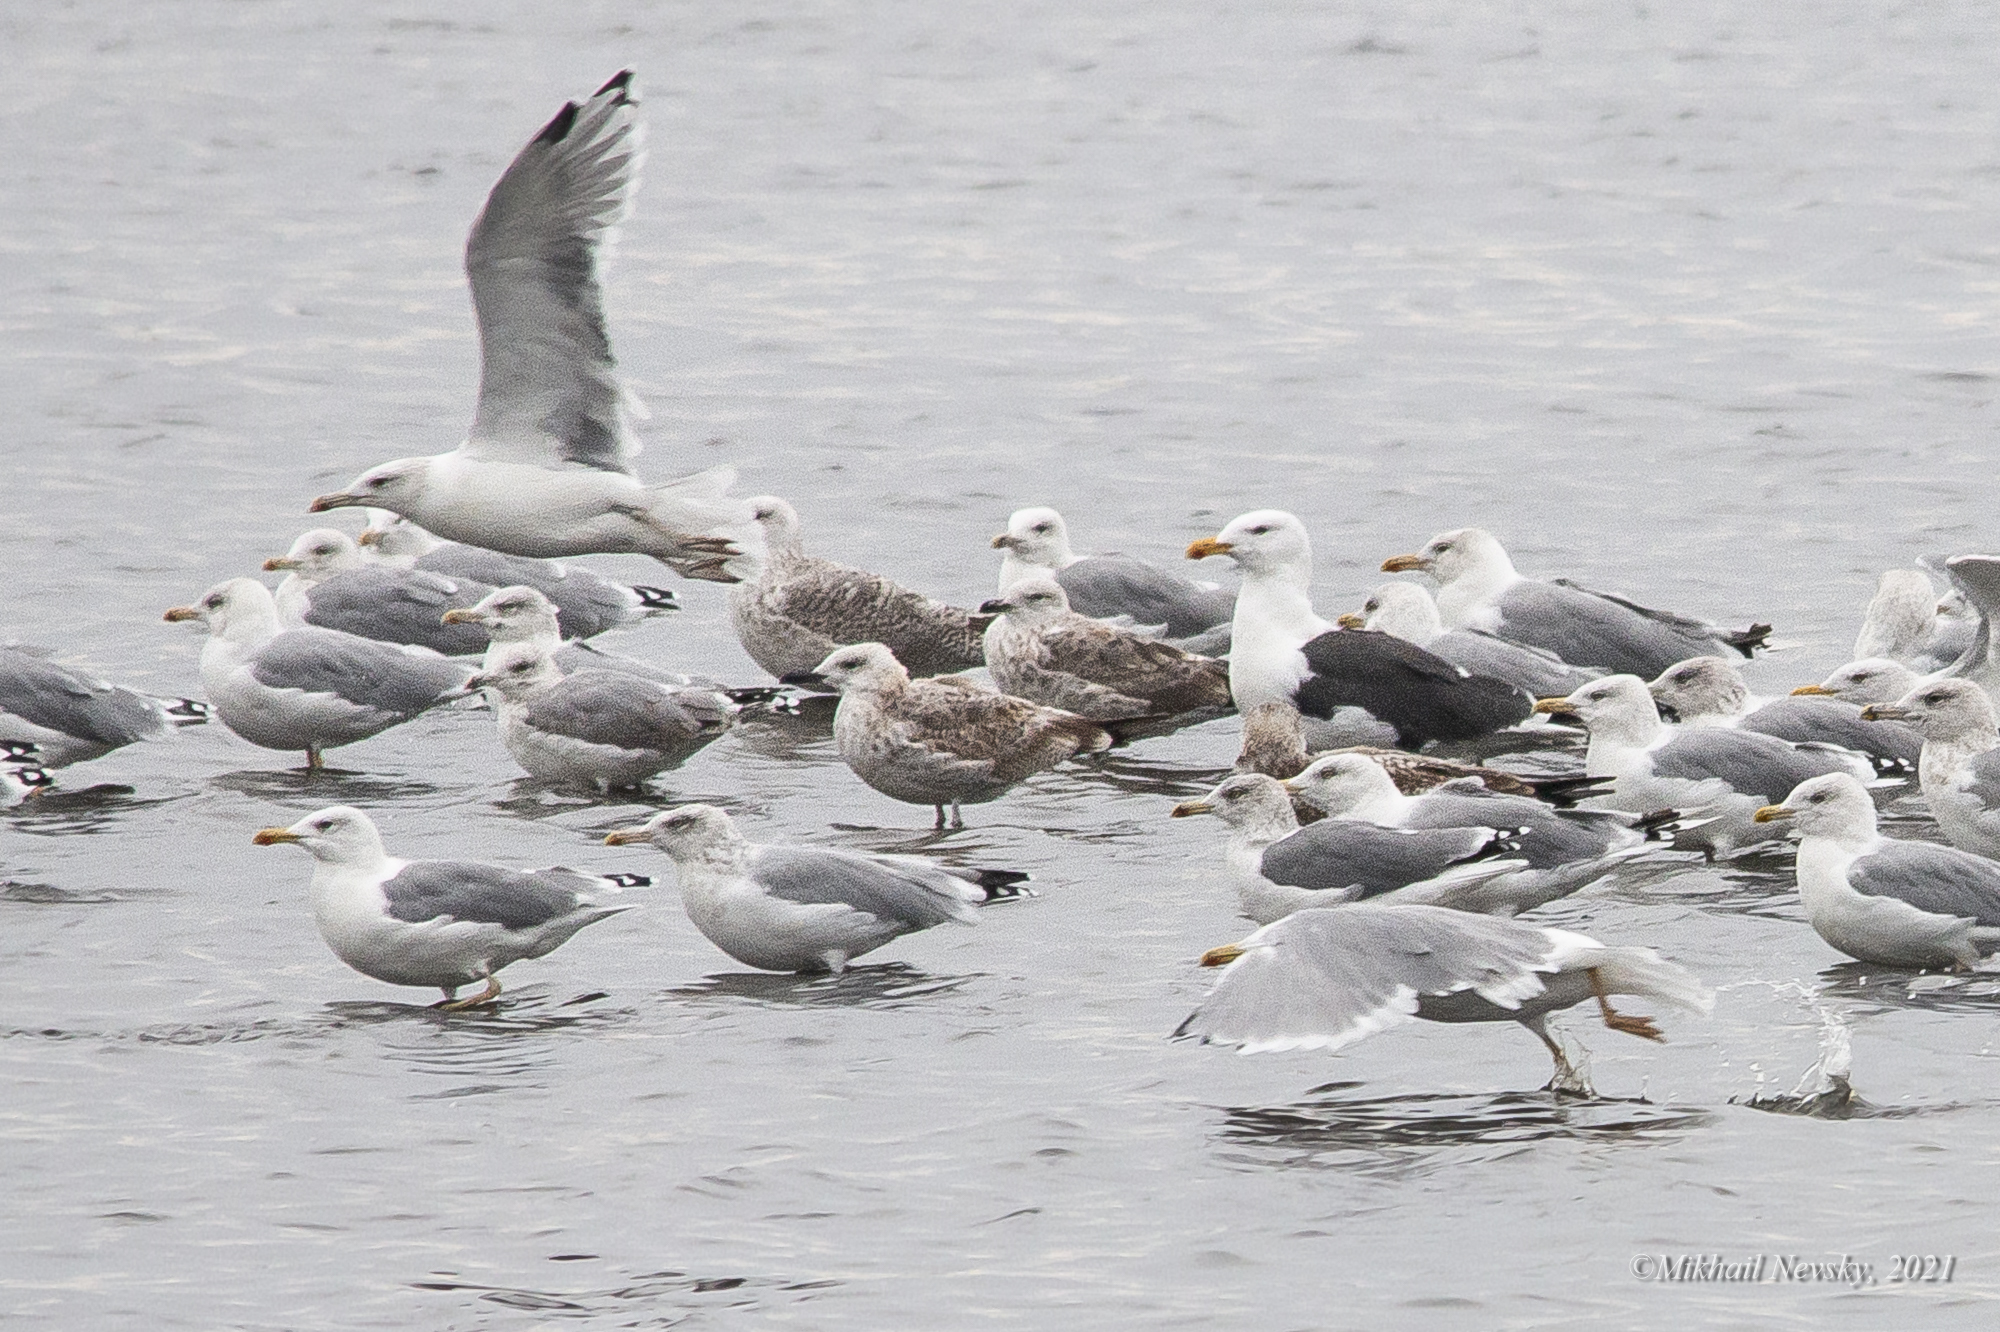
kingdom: Animalia
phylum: Chordata
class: Aves
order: Charadriiformes
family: Laridae
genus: Larus
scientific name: Larus marinus
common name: Great black-backed gull
